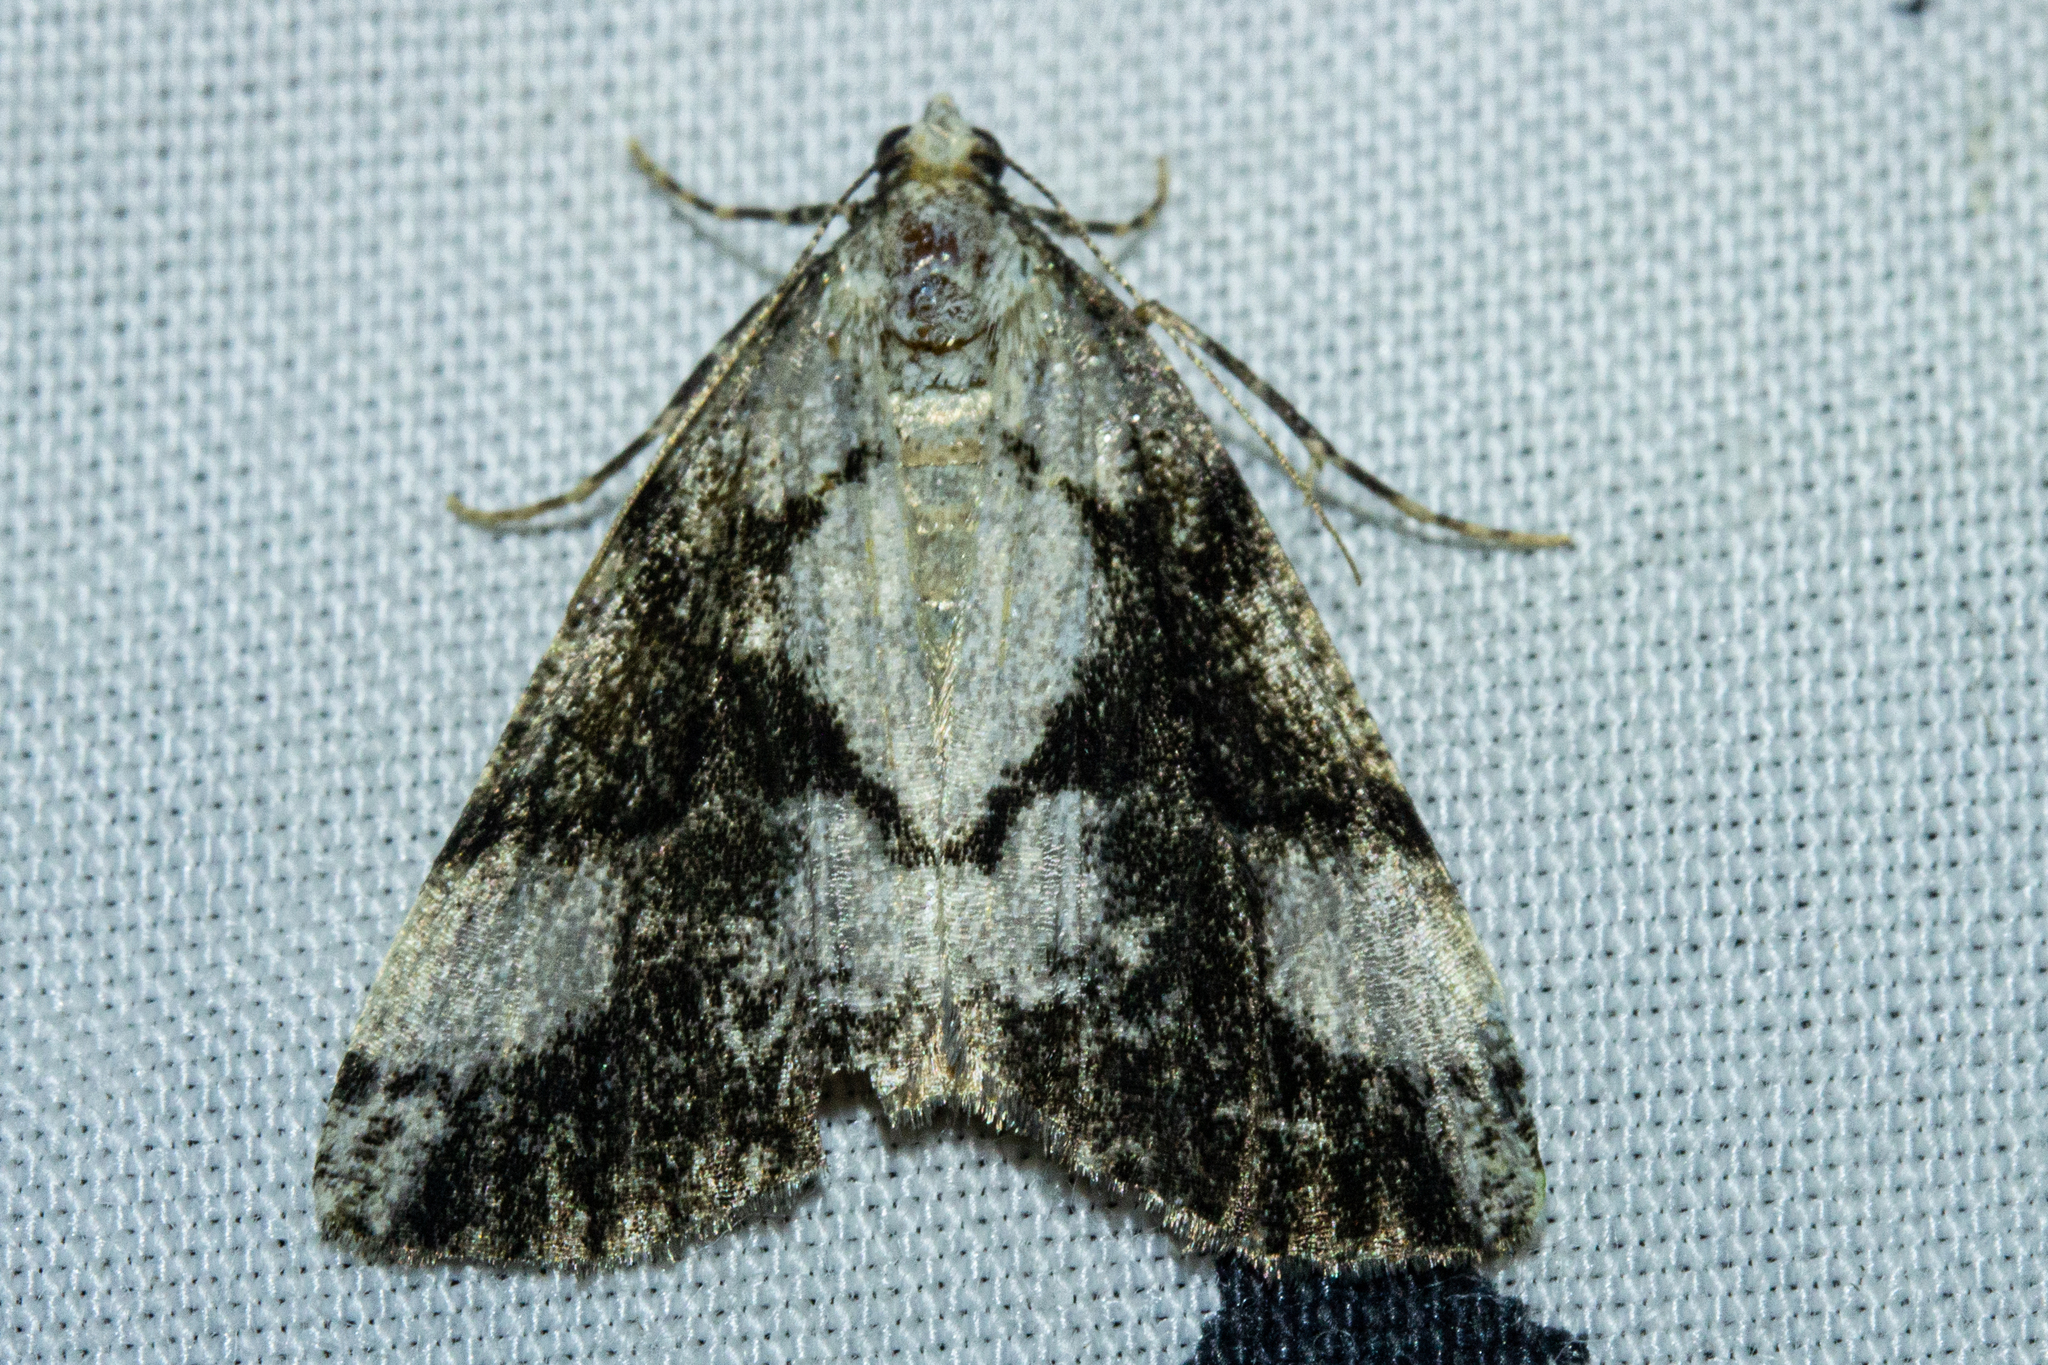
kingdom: Animalia
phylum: Arthropoda
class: Insecta
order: Lepidoptera
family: Geometridae
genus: Pseudocoremia
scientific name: Pseudocoremia leucelaea
